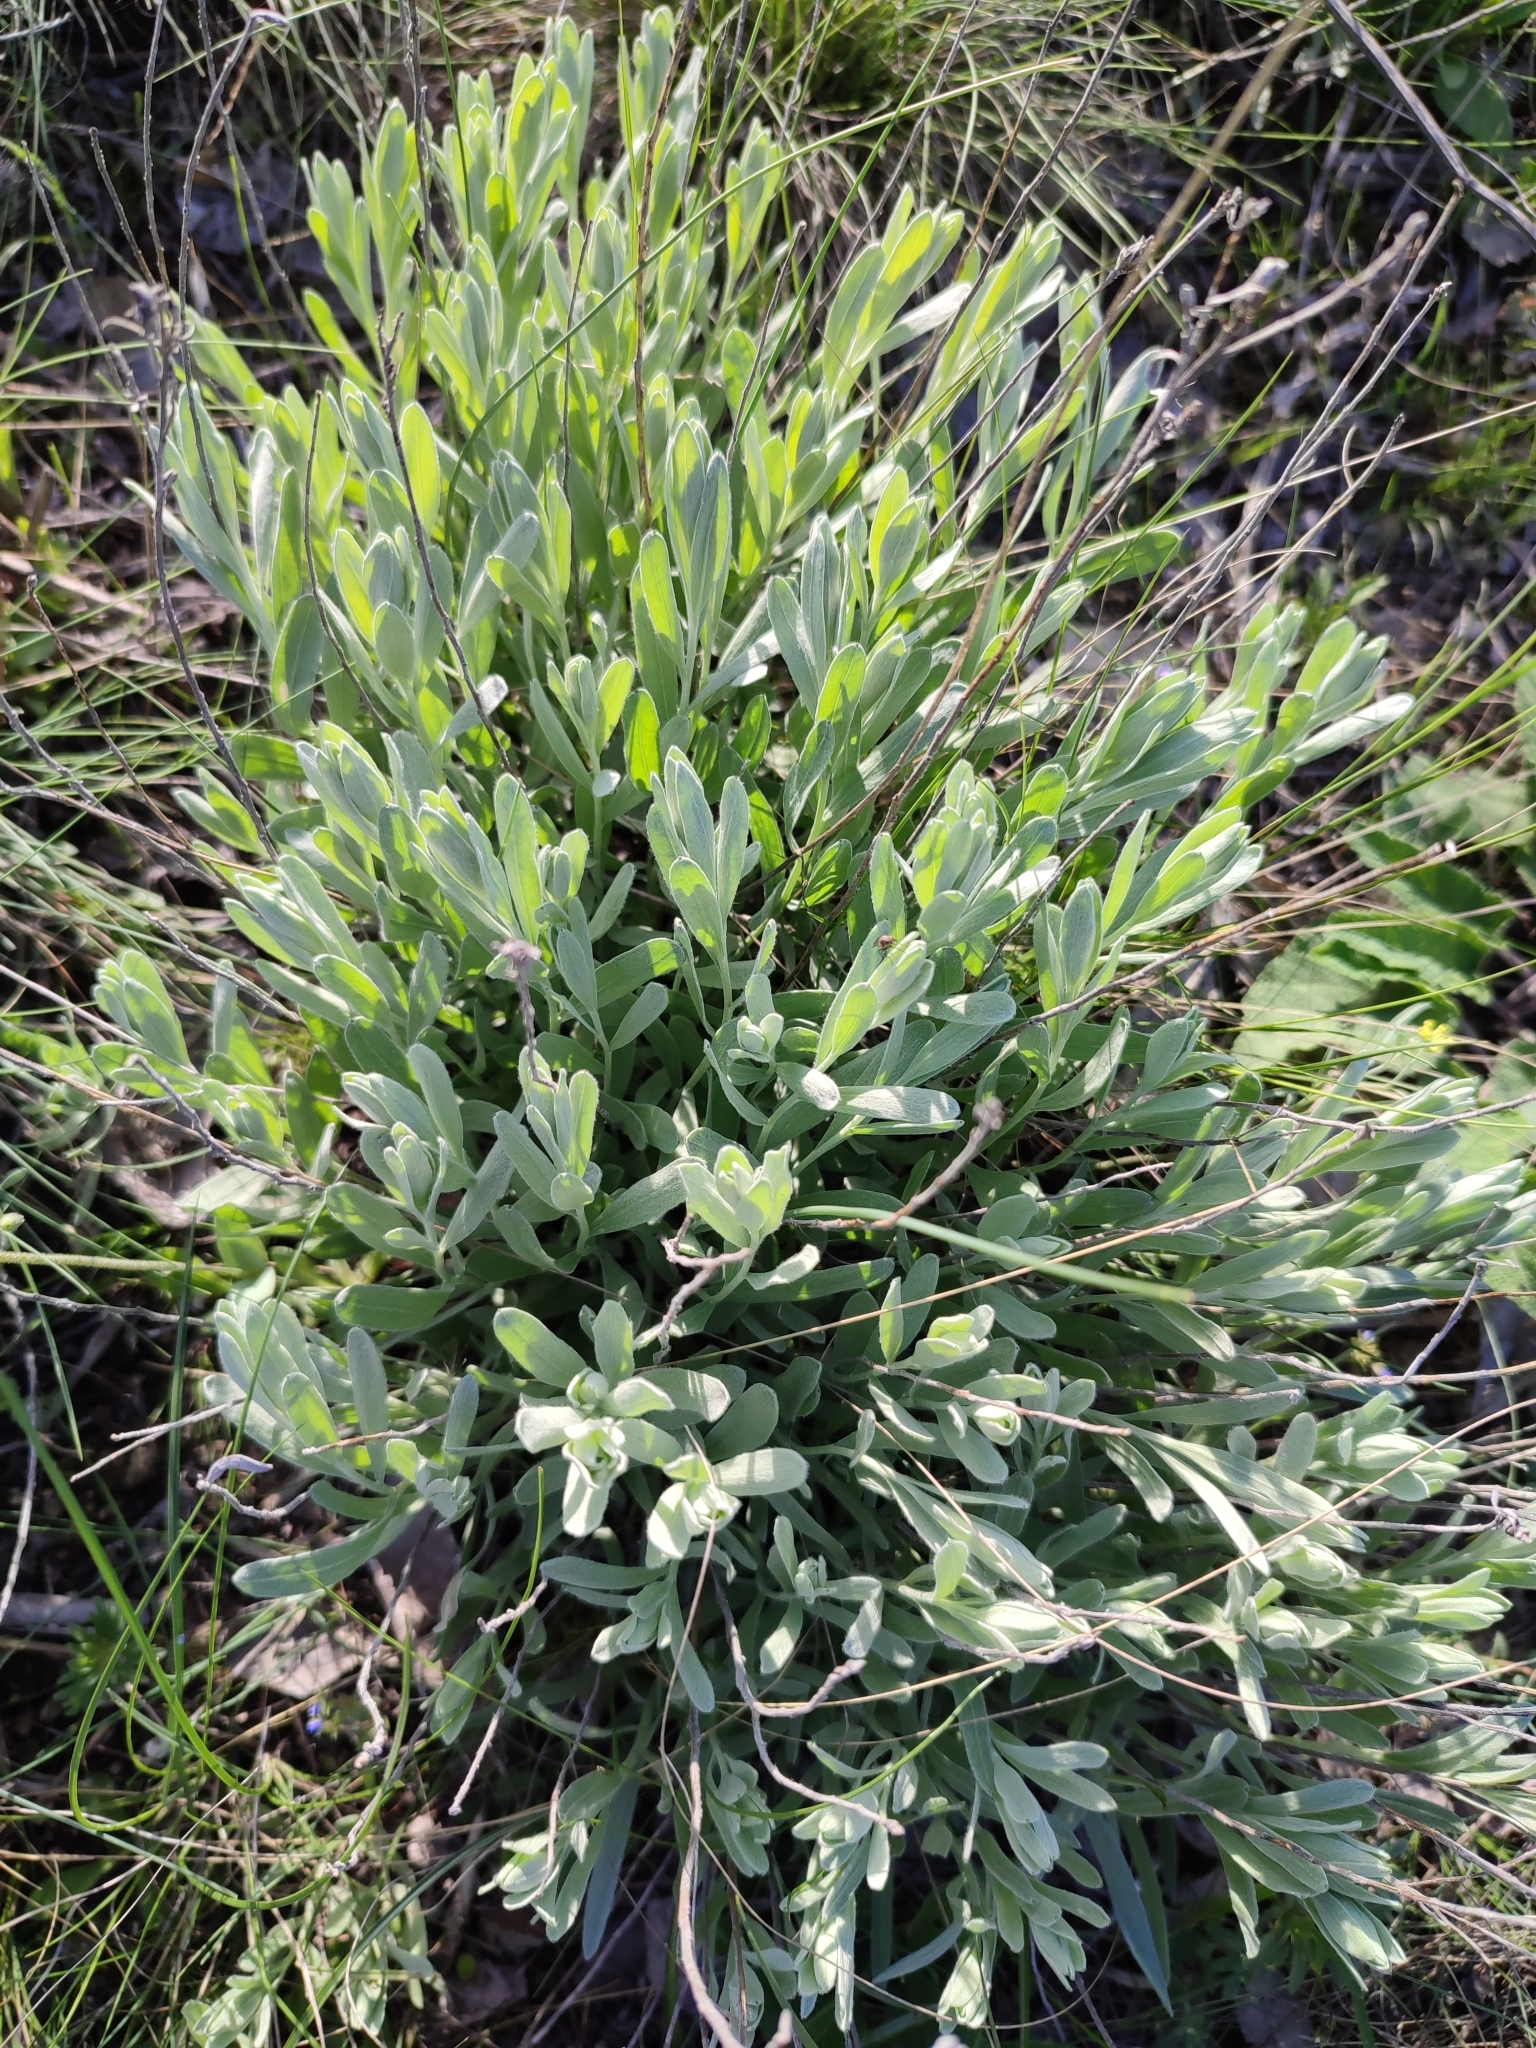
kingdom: Plantae
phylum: Tracheophyta
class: Magnoliopsida
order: Asterales
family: Asteraceae
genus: Galatella
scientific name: Galatella villosa
